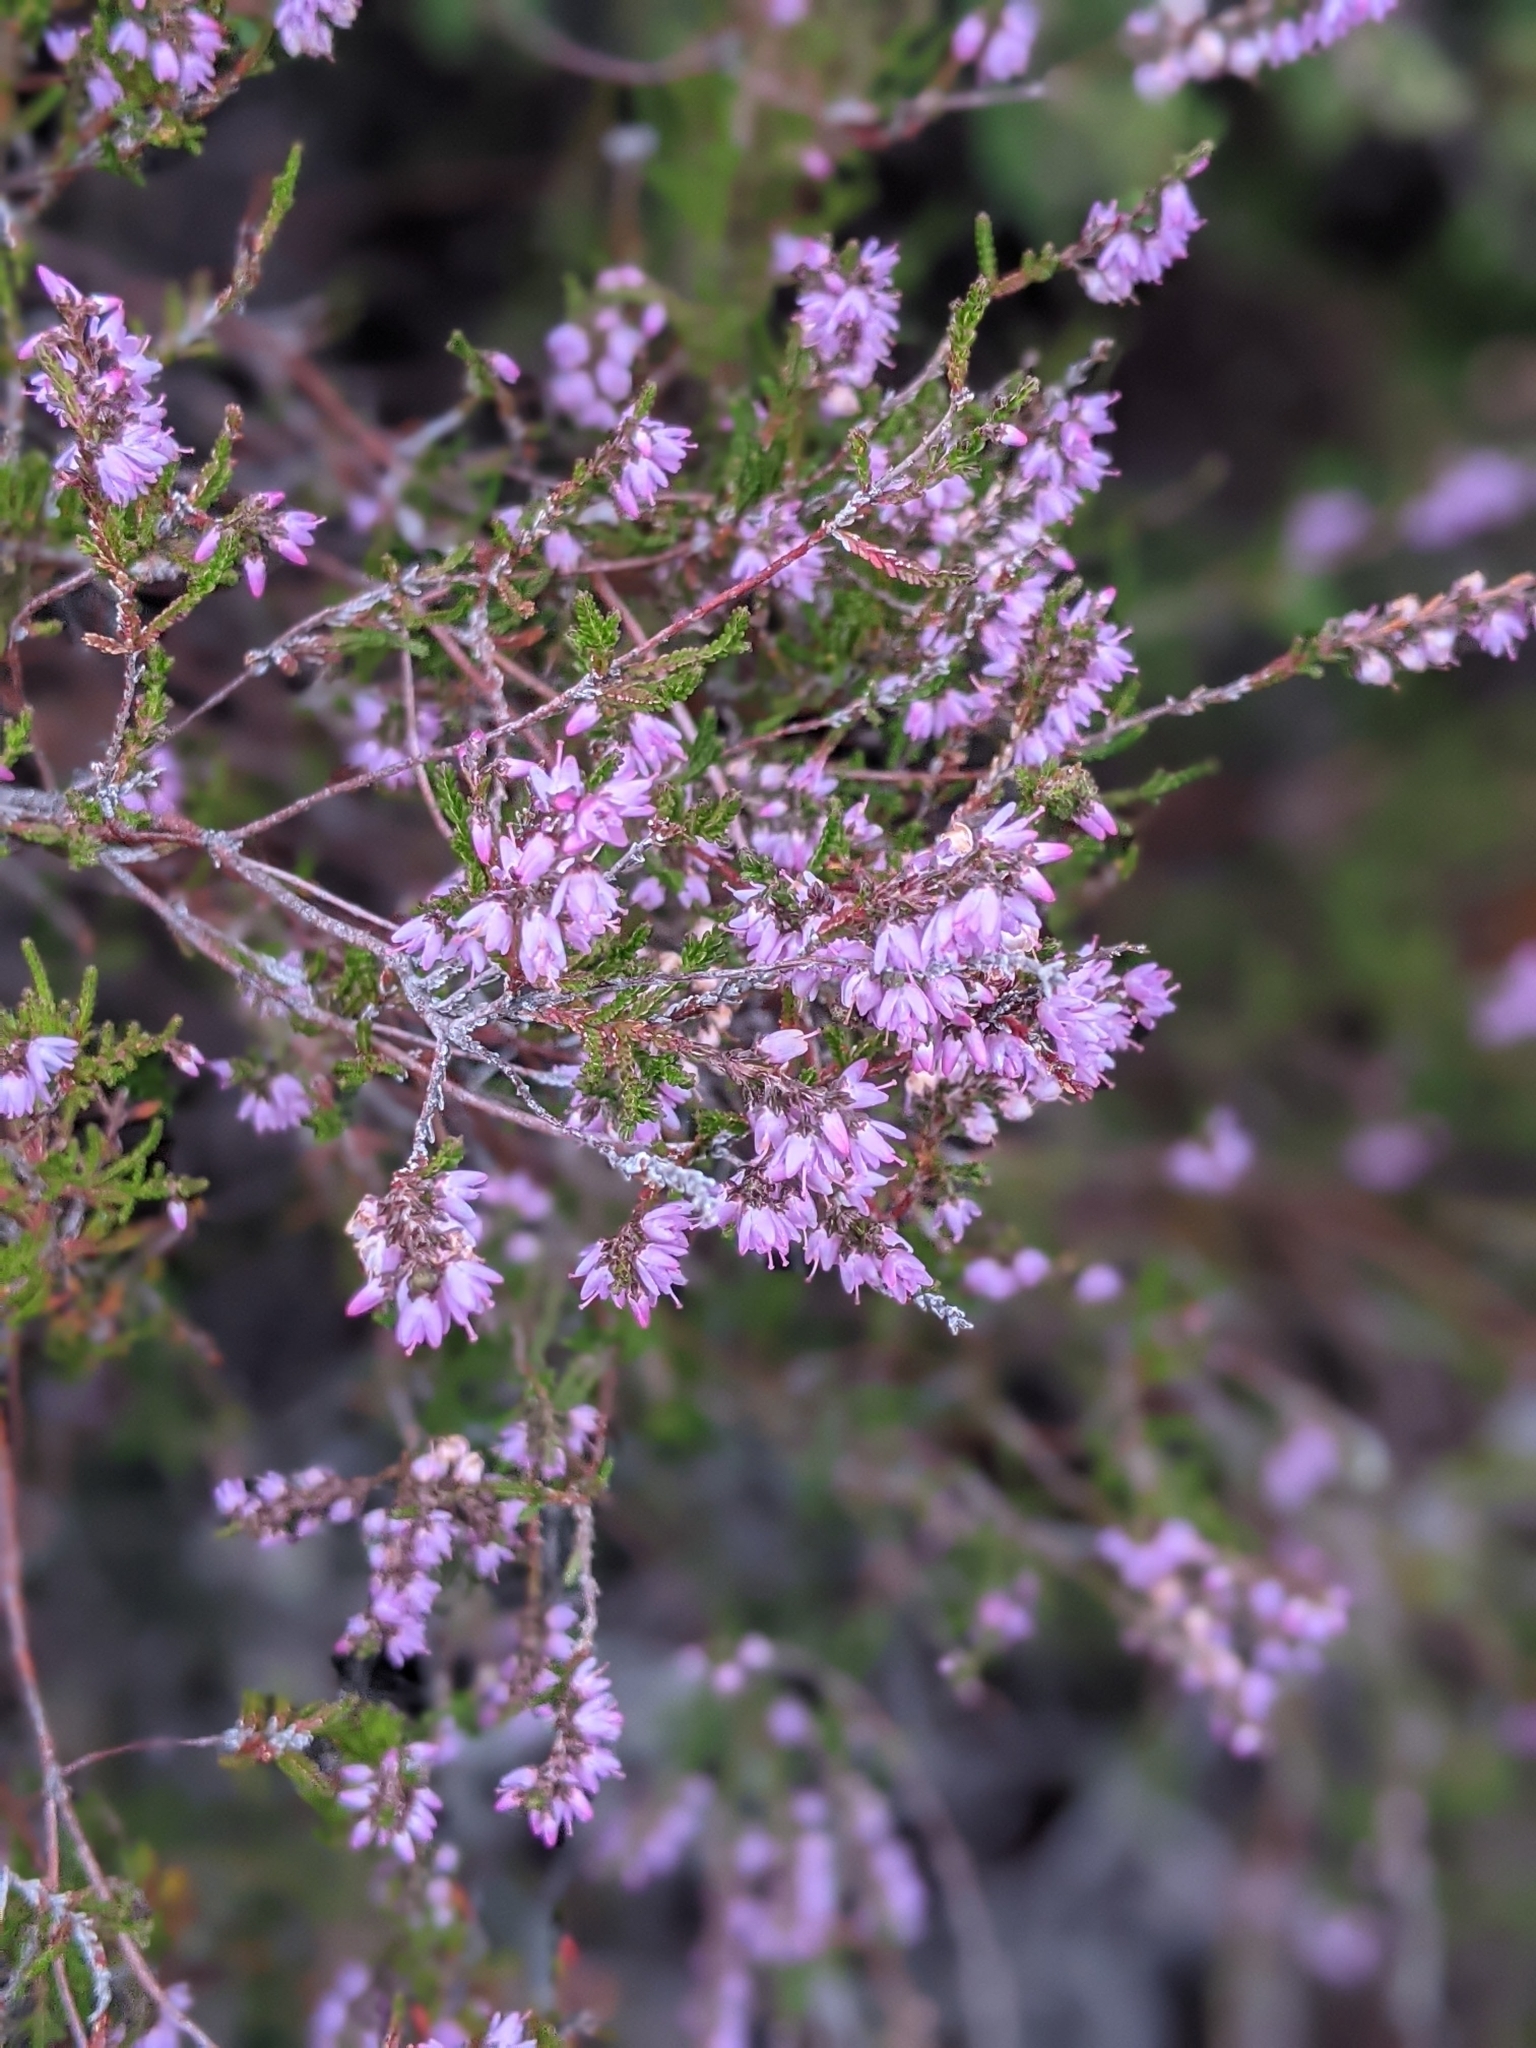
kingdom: Plantae
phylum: Tracheophyta
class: Magnoliopsida
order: Ericales
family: Ericaceae
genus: Calluna
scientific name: Calluna vulgaris
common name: Heather
